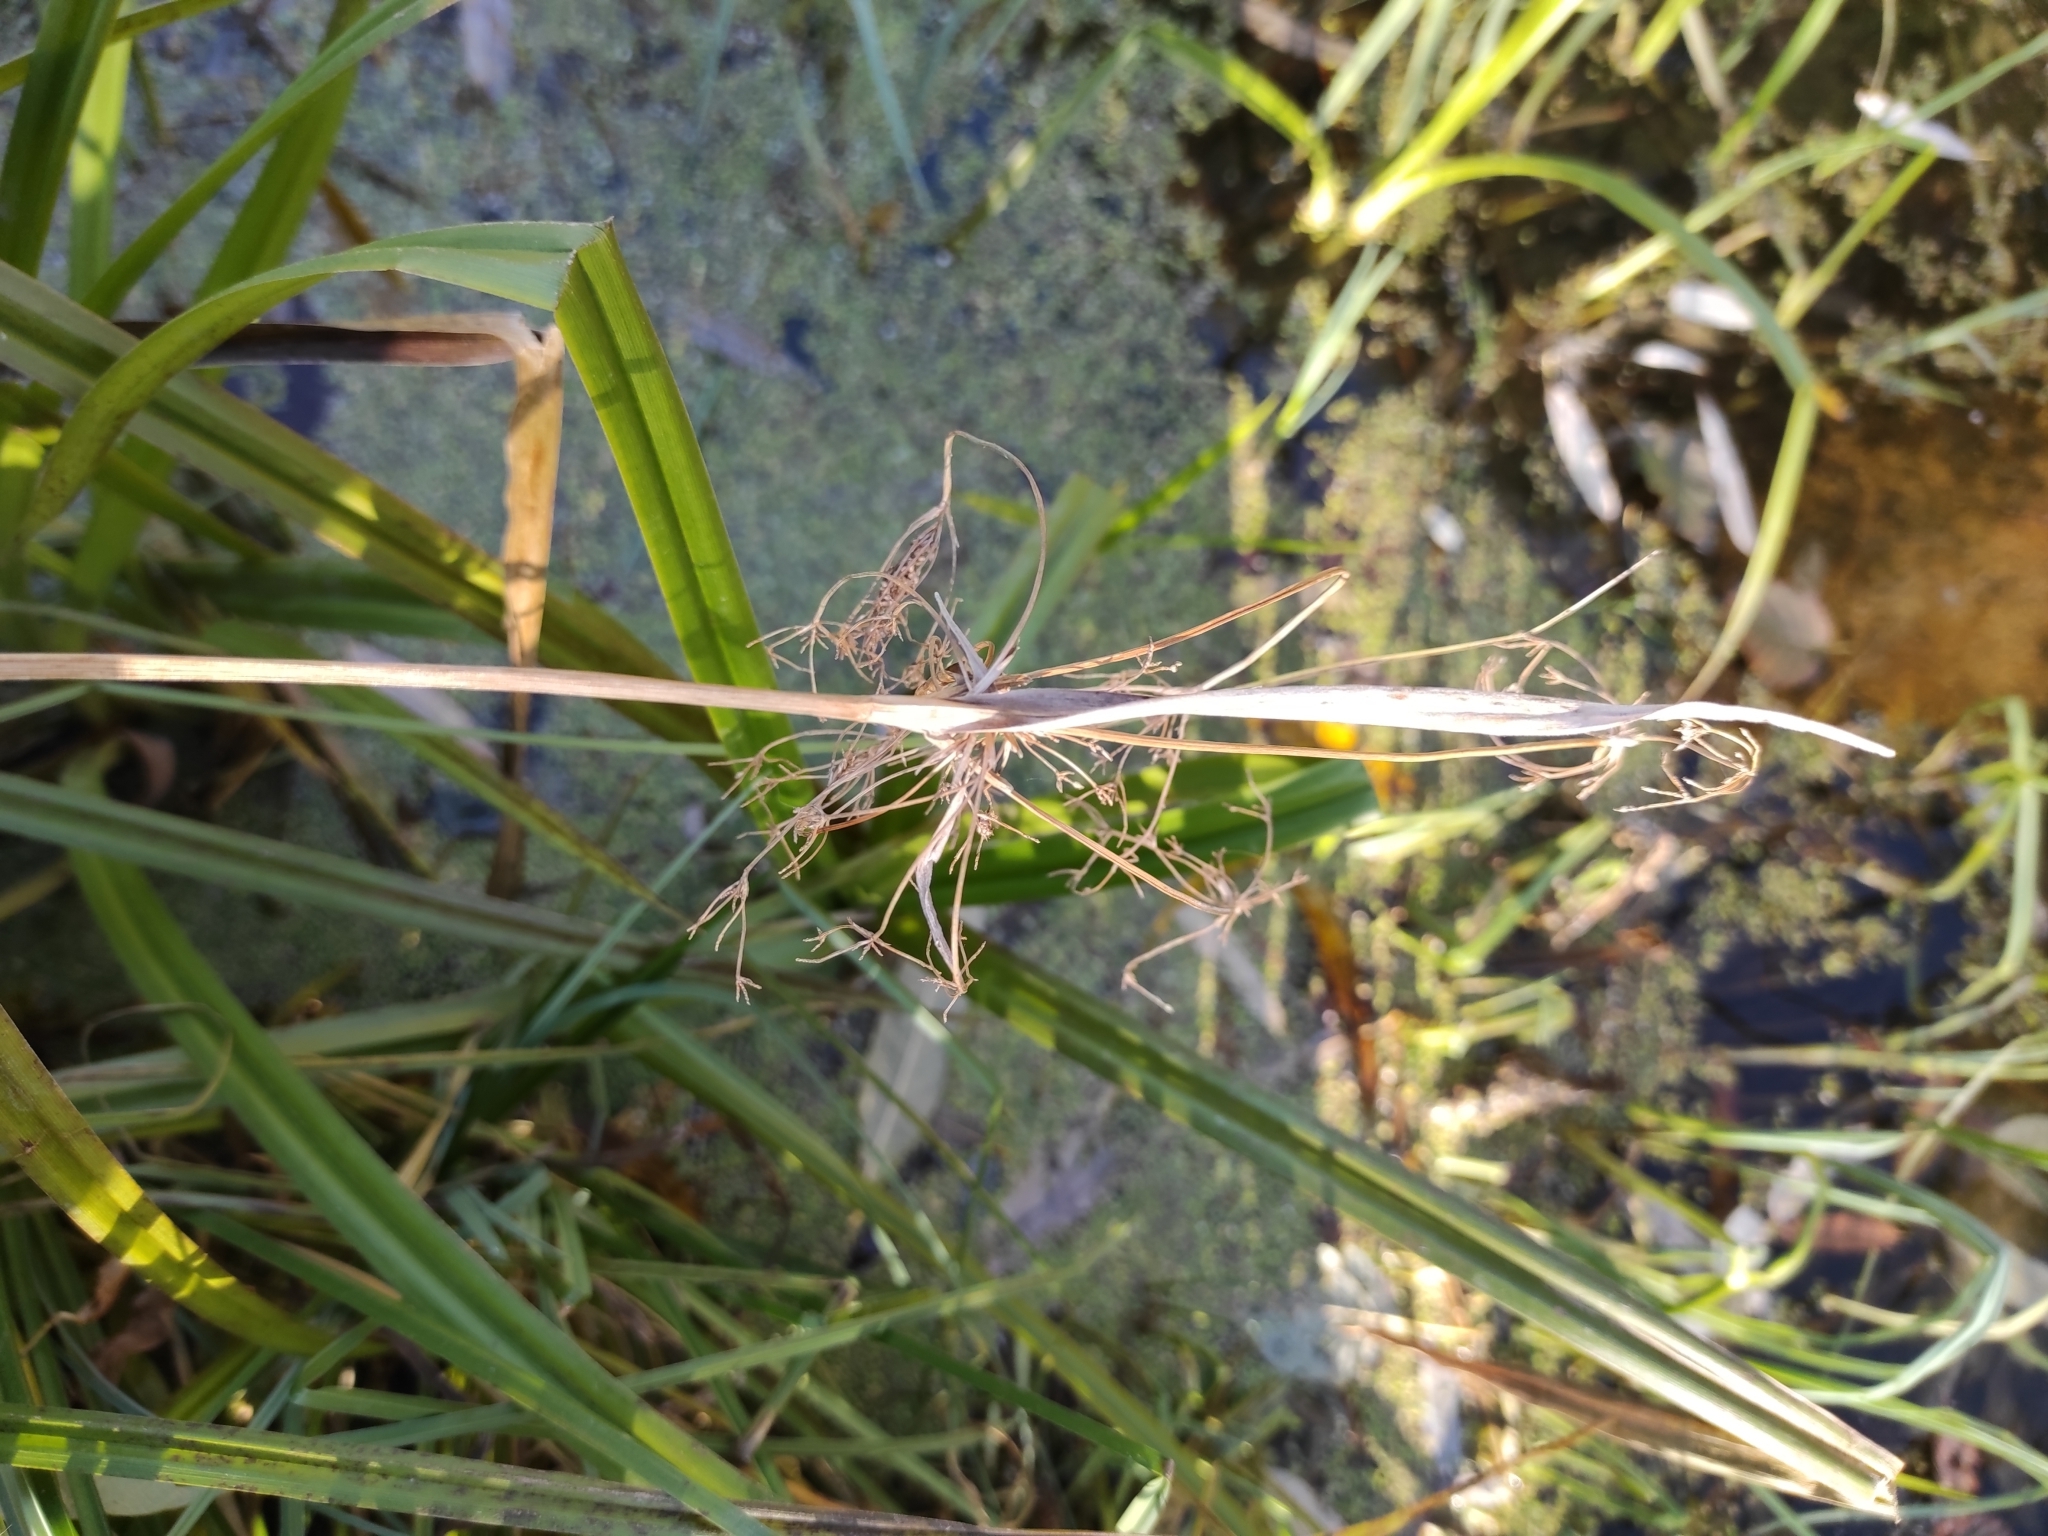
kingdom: Plantae
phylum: Tracheophyta
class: Liliopsida
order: Poales
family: Cyperaceae
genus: Scirpus
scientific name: Scirpus sylvaticus
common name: Wood club-rush
